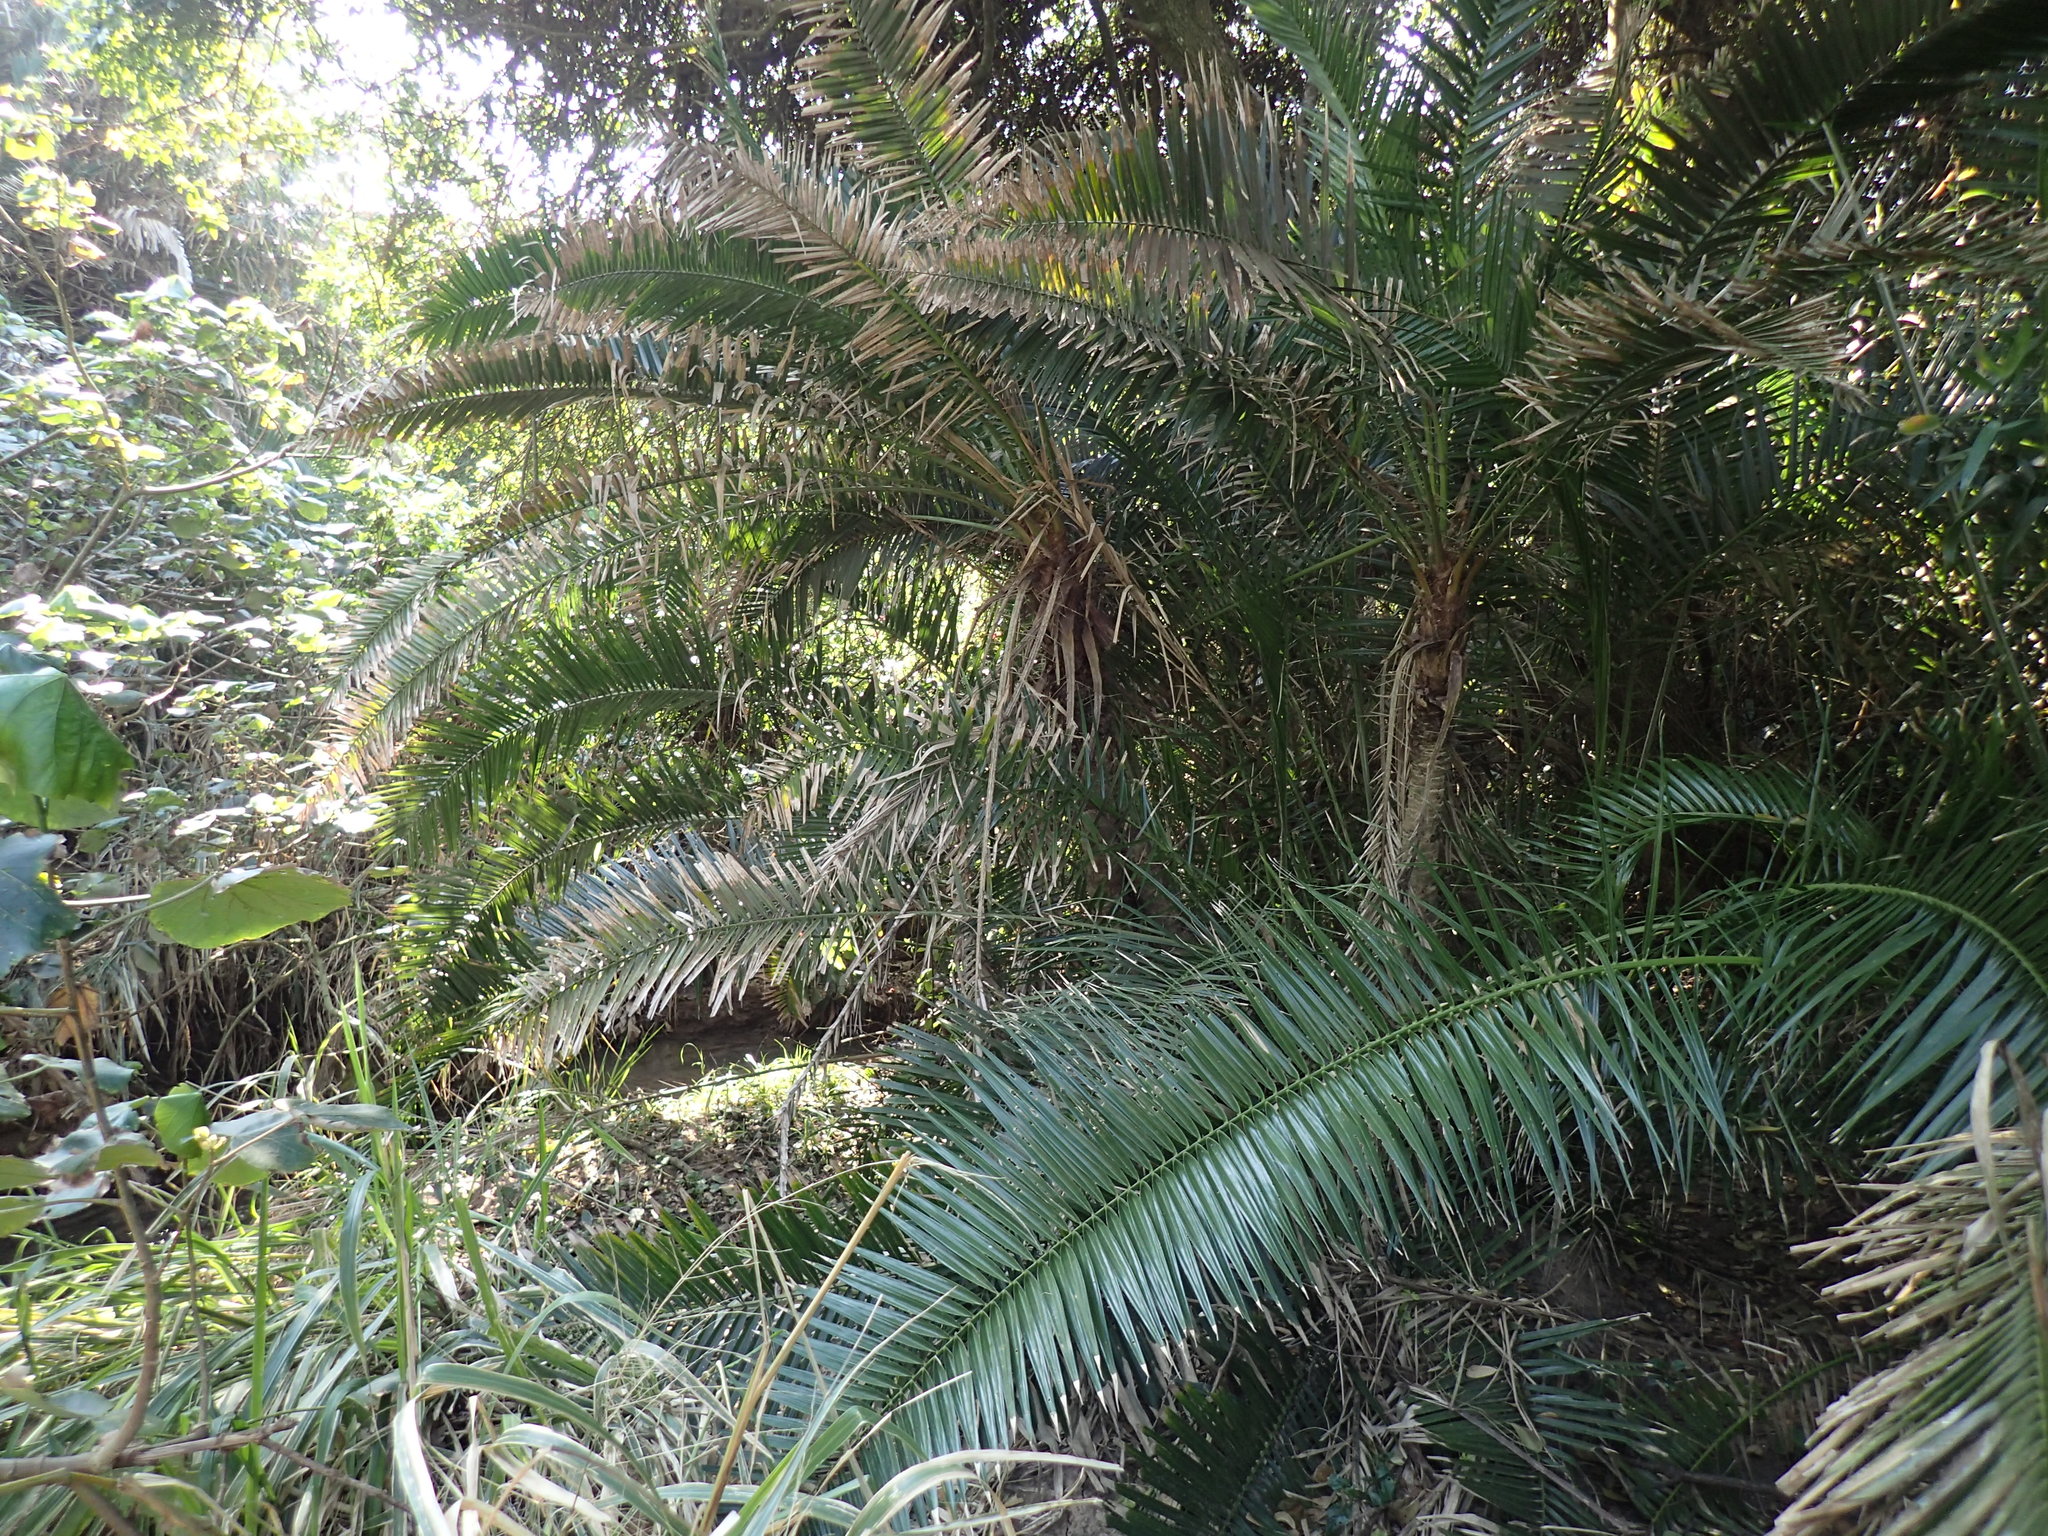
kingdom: Plantae
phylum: Tracheophyta
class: Liliopsida
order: Arecales
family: Arecaceae
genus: Phoenix
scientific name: Phoenix reclinata
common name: Senegal date palm
